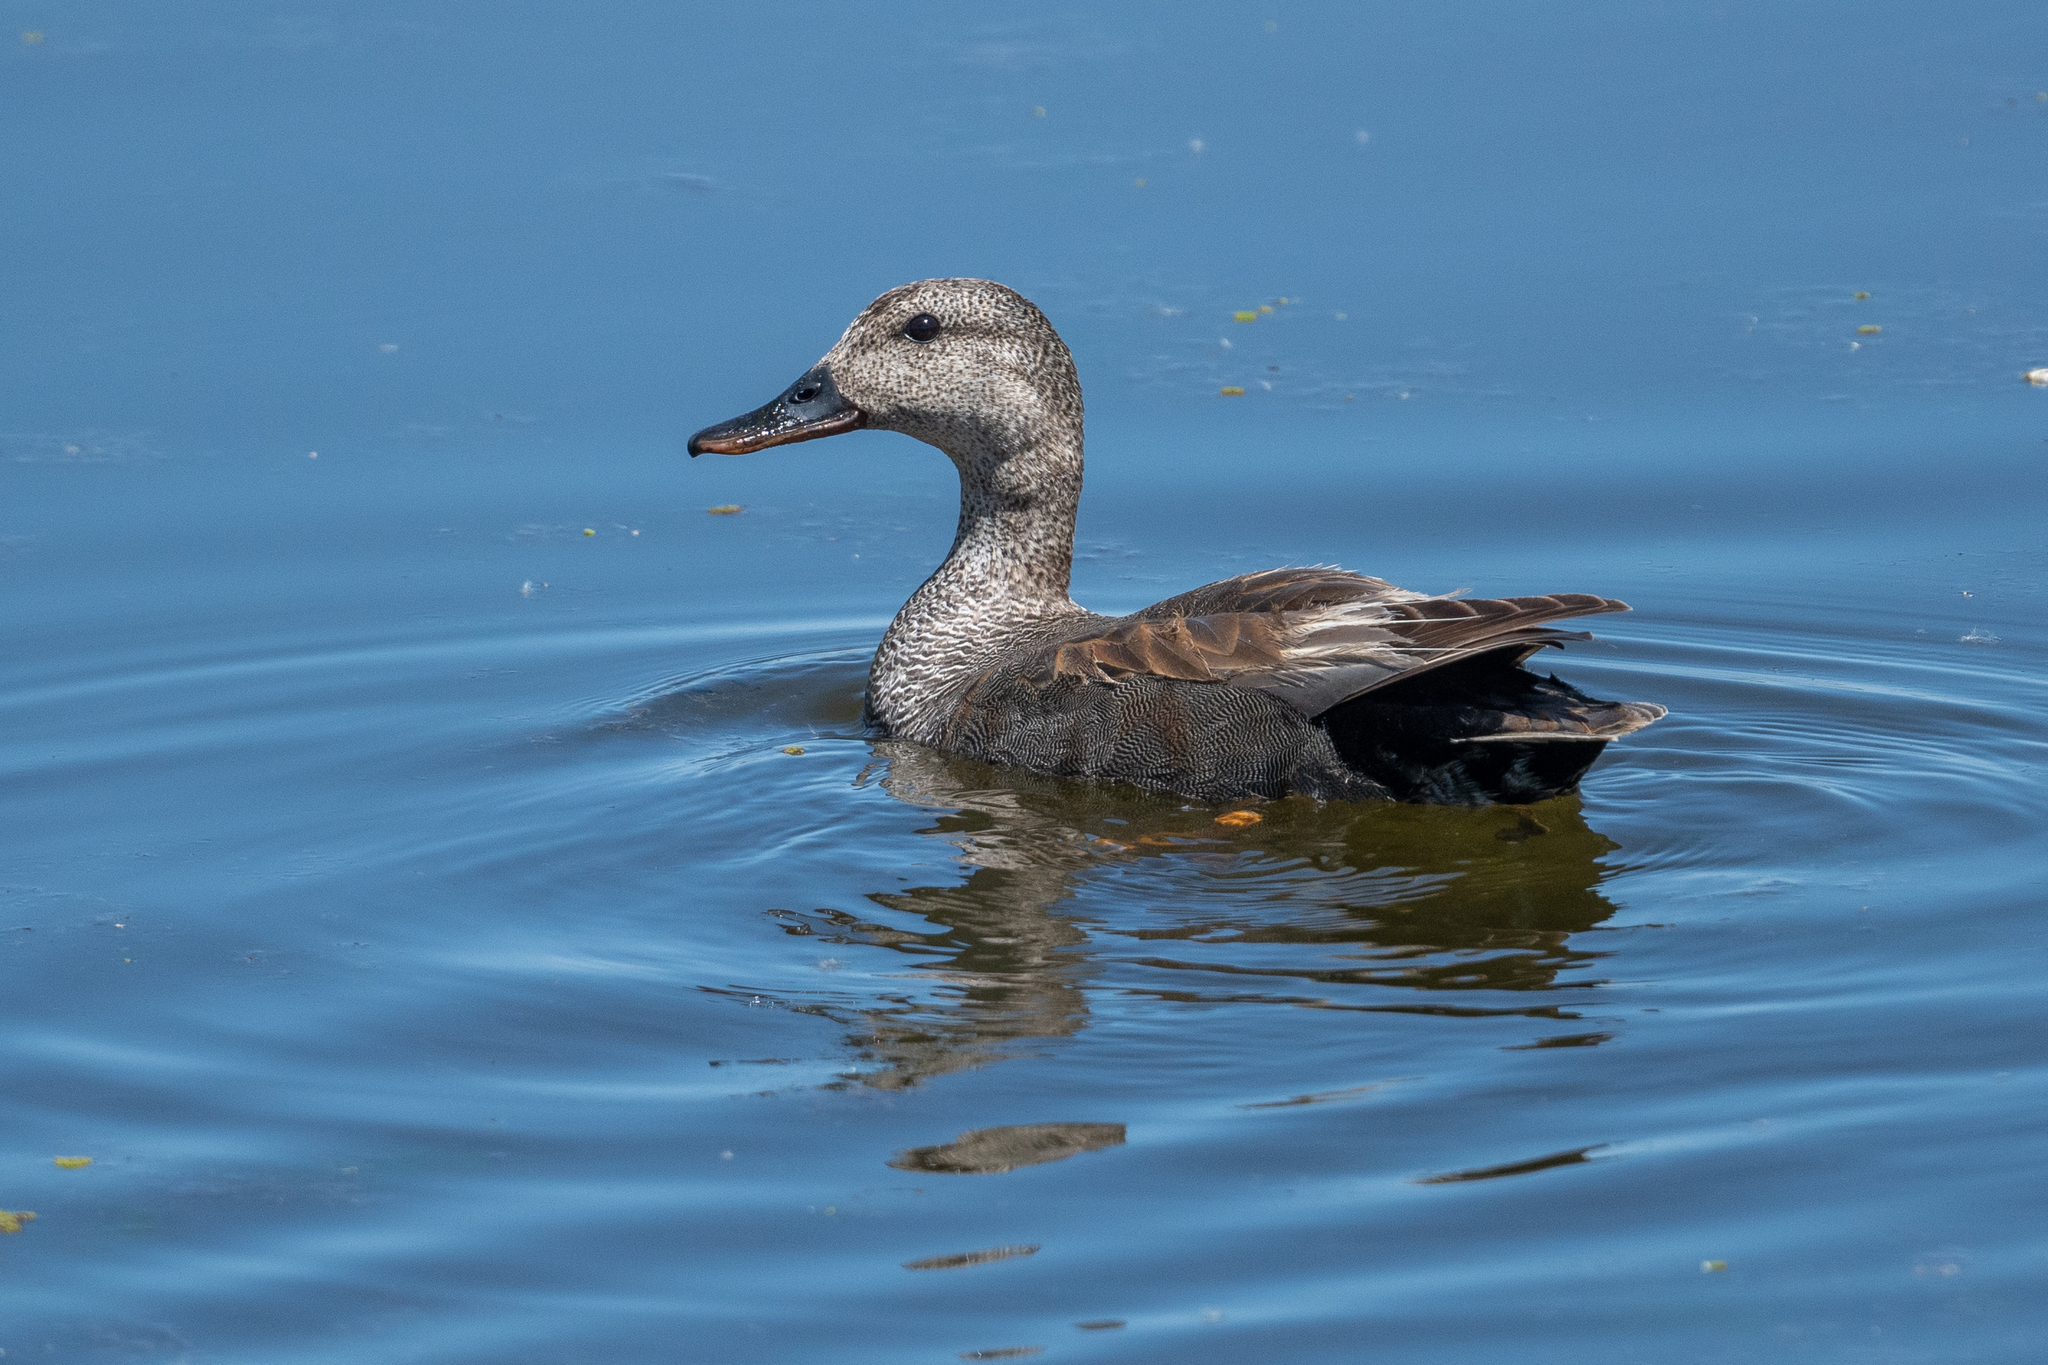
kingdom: Animalia
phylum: Chordata
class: Aves
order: Anseriformes
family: Anatidae
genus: Mareca
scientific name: Mareca strepera
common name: Gadwall
